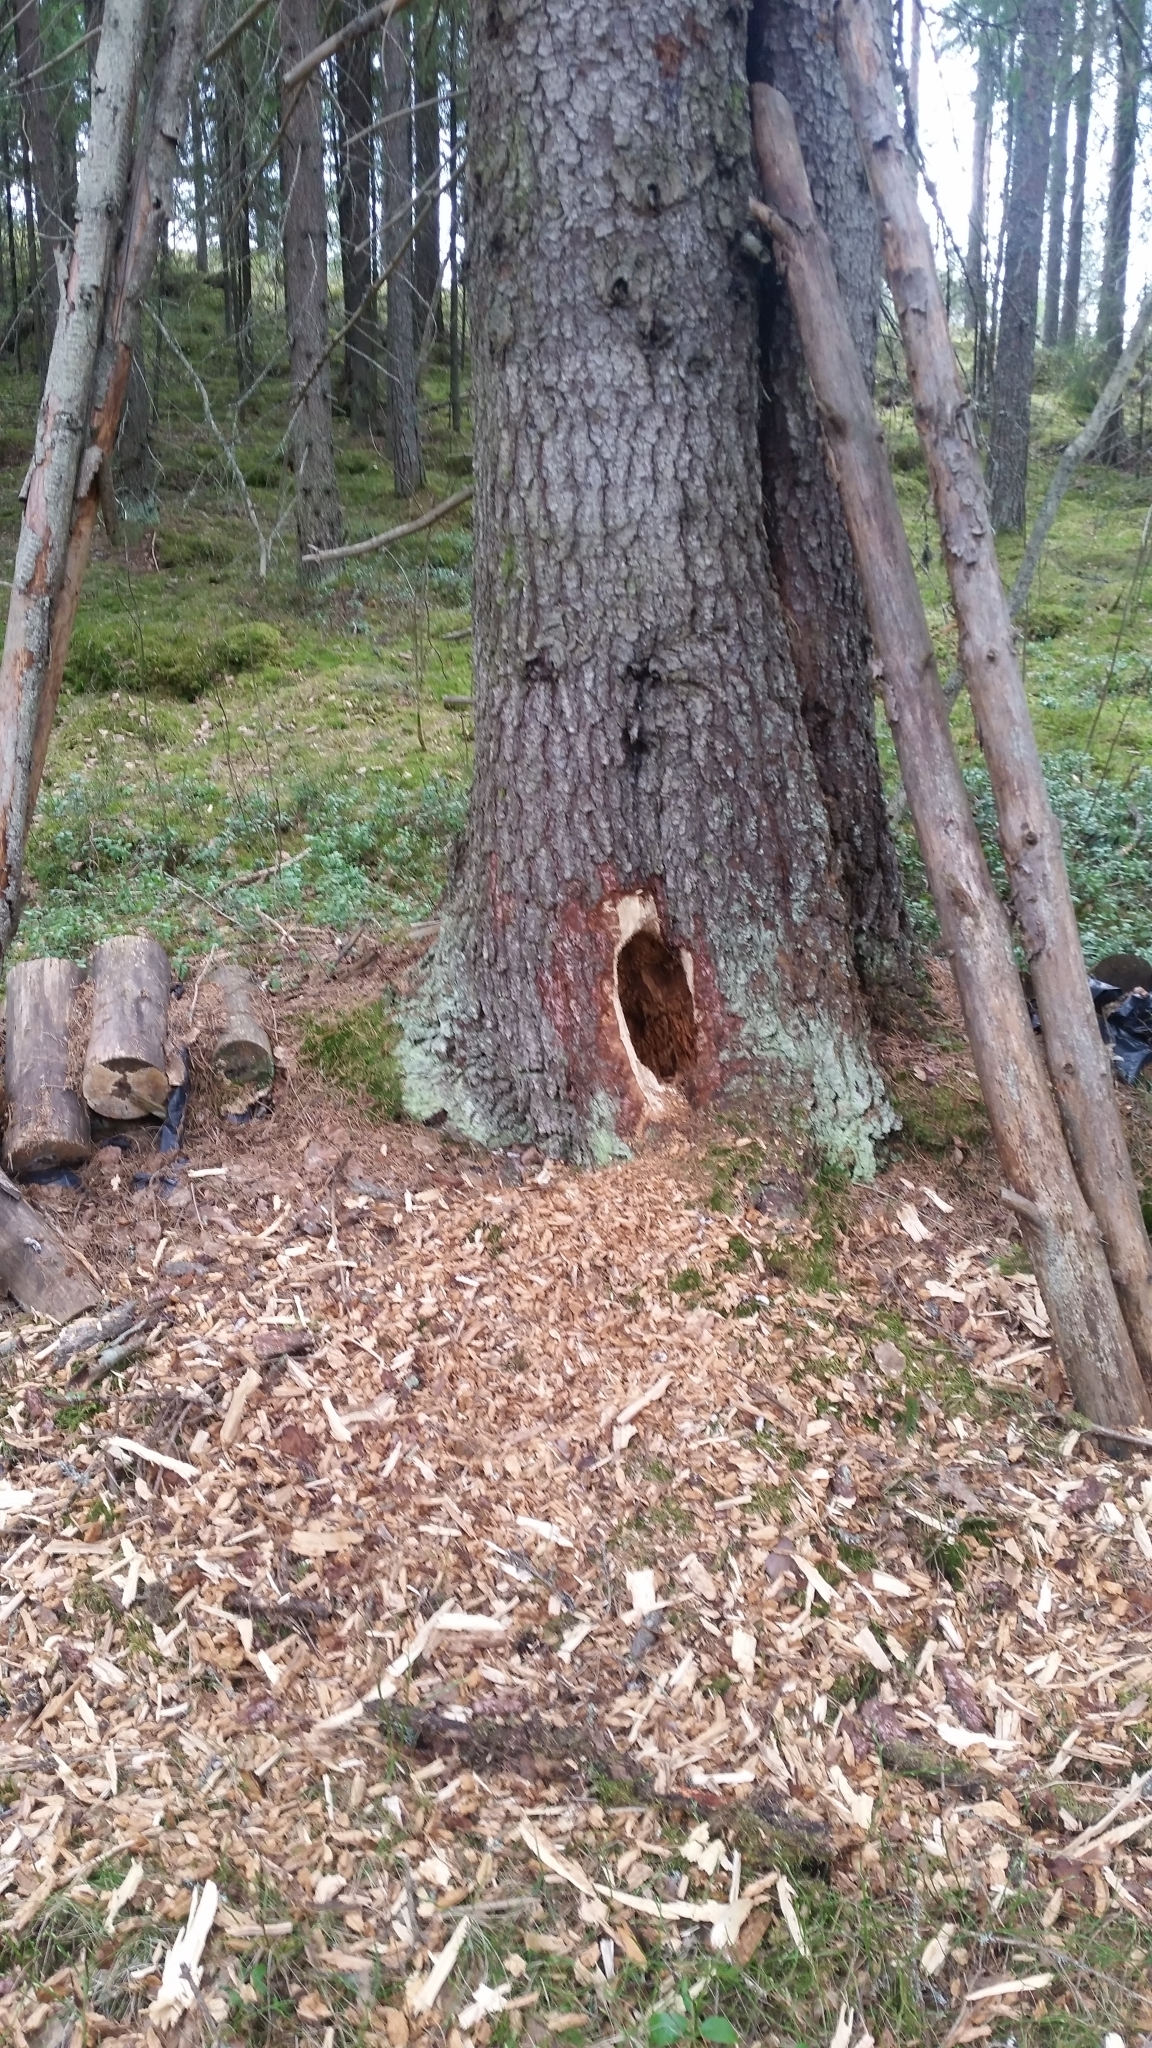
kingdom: Animalia
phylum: Chordata
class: Aves
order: Piciformes
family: Picidae
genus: Dryocopus
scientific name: Dryocopus martius
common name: Black woodpecker
